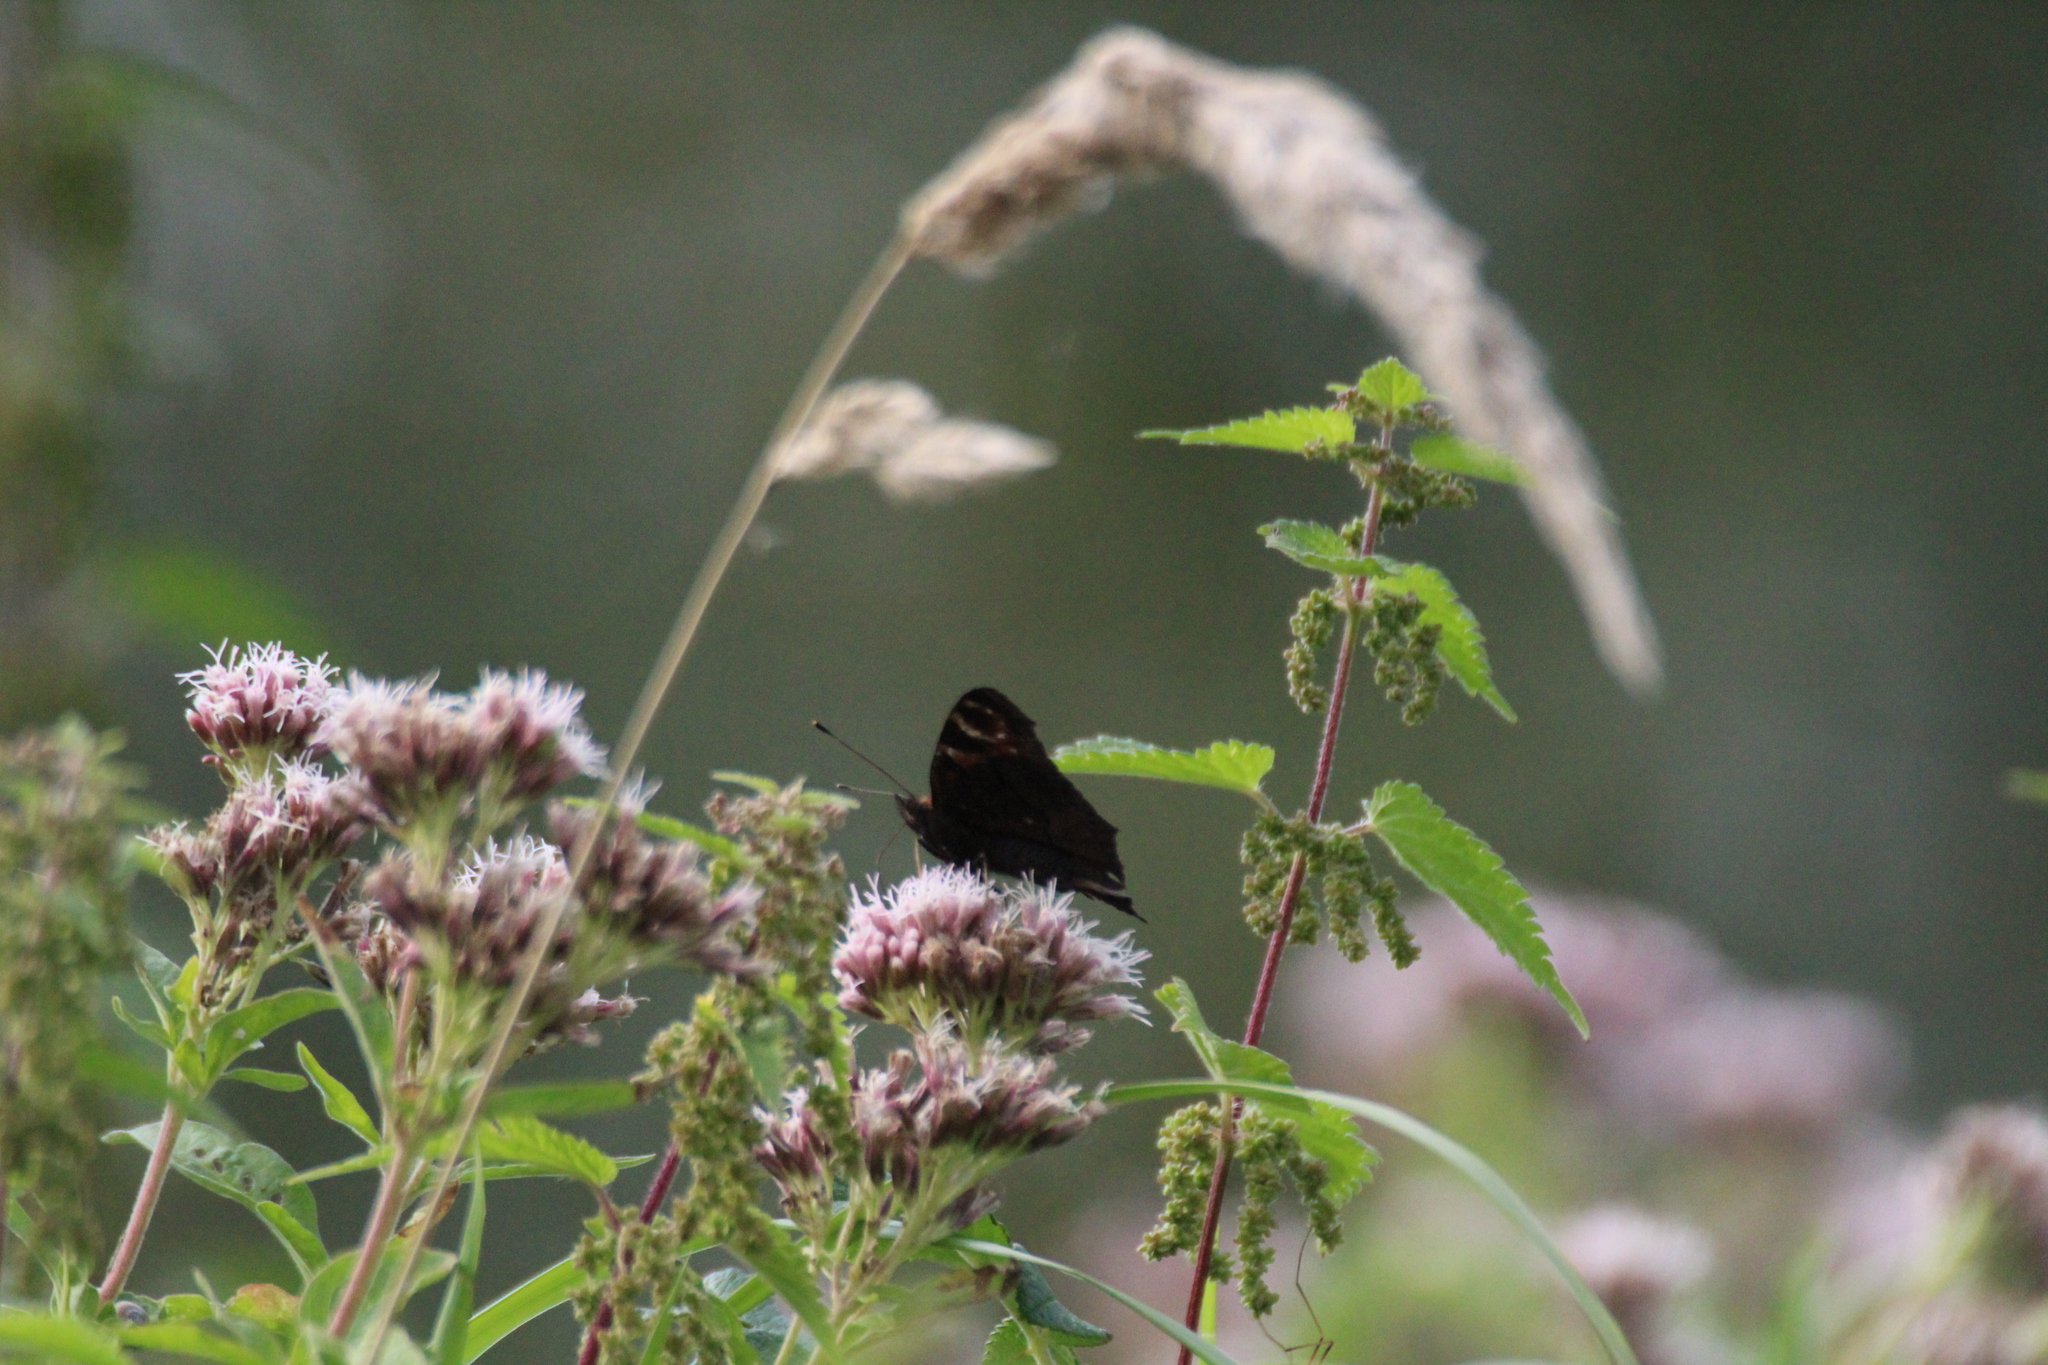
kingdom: Animalia
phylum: Arthropoda
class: Insecta
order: Lepidoptera
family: Nymphalidae
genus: Aglais
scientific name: Aglais io
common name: Peacock
